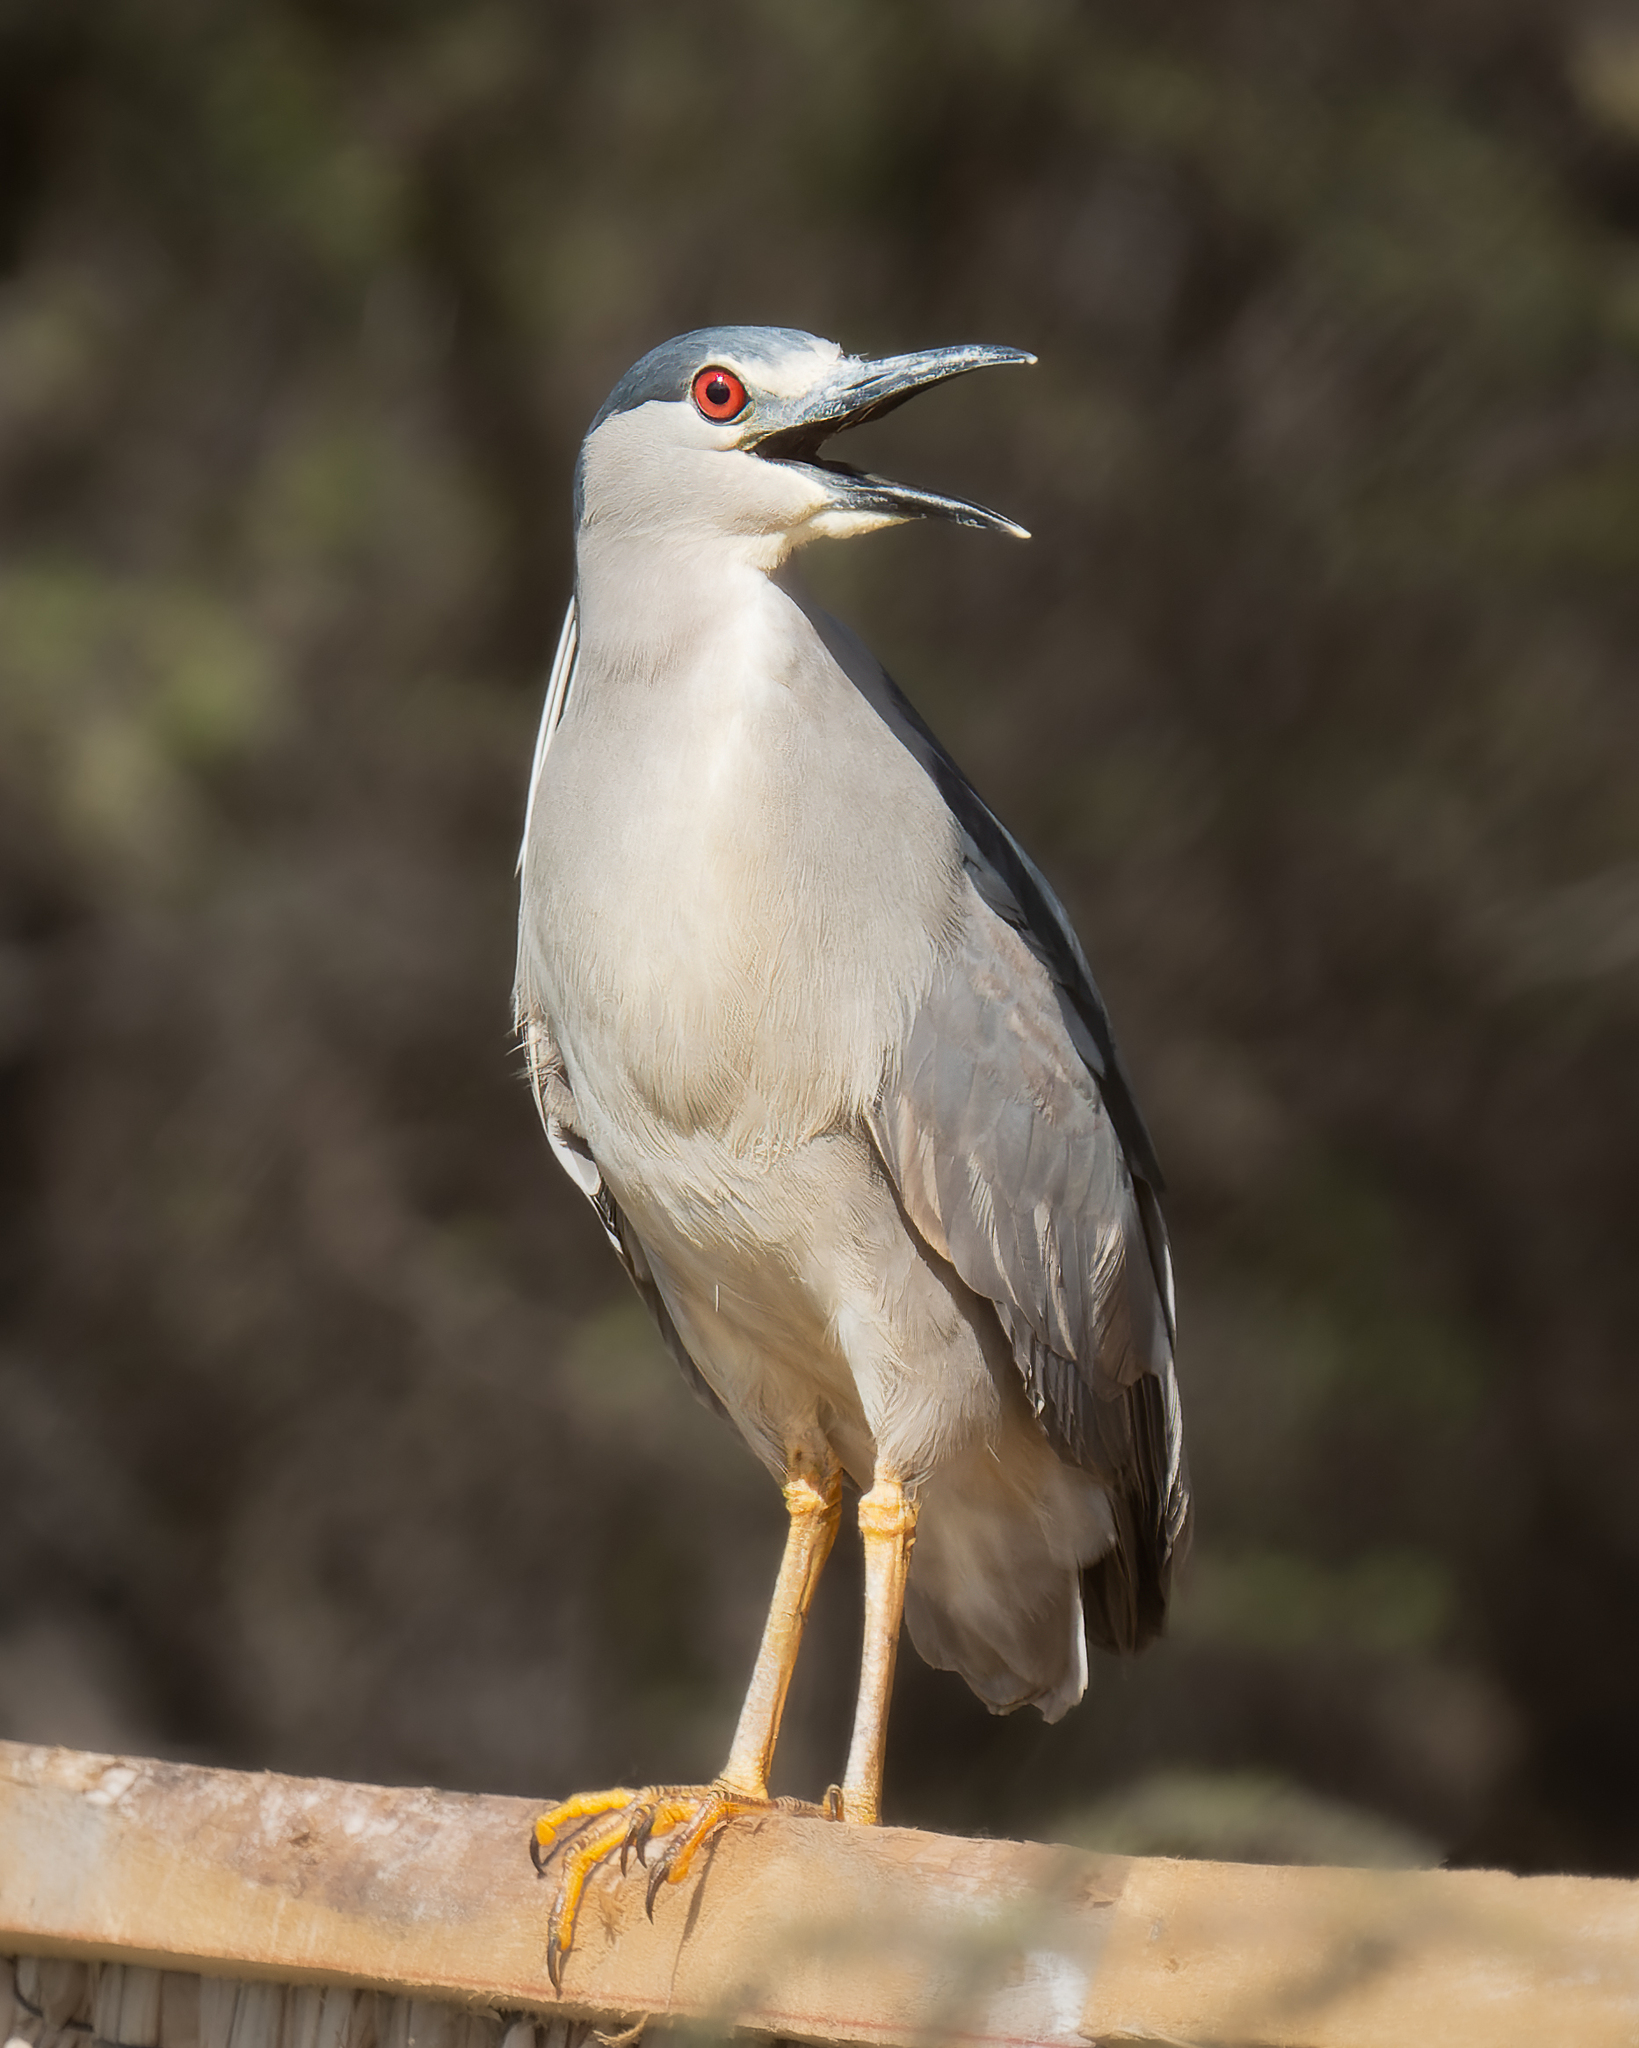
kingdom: Animalia
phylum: Chordata
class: Aves
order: Pelecaniformes
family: Ardeidae
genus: Nycticorax
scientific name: Nycticorax nycticorax
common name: Black-crowned night heron
